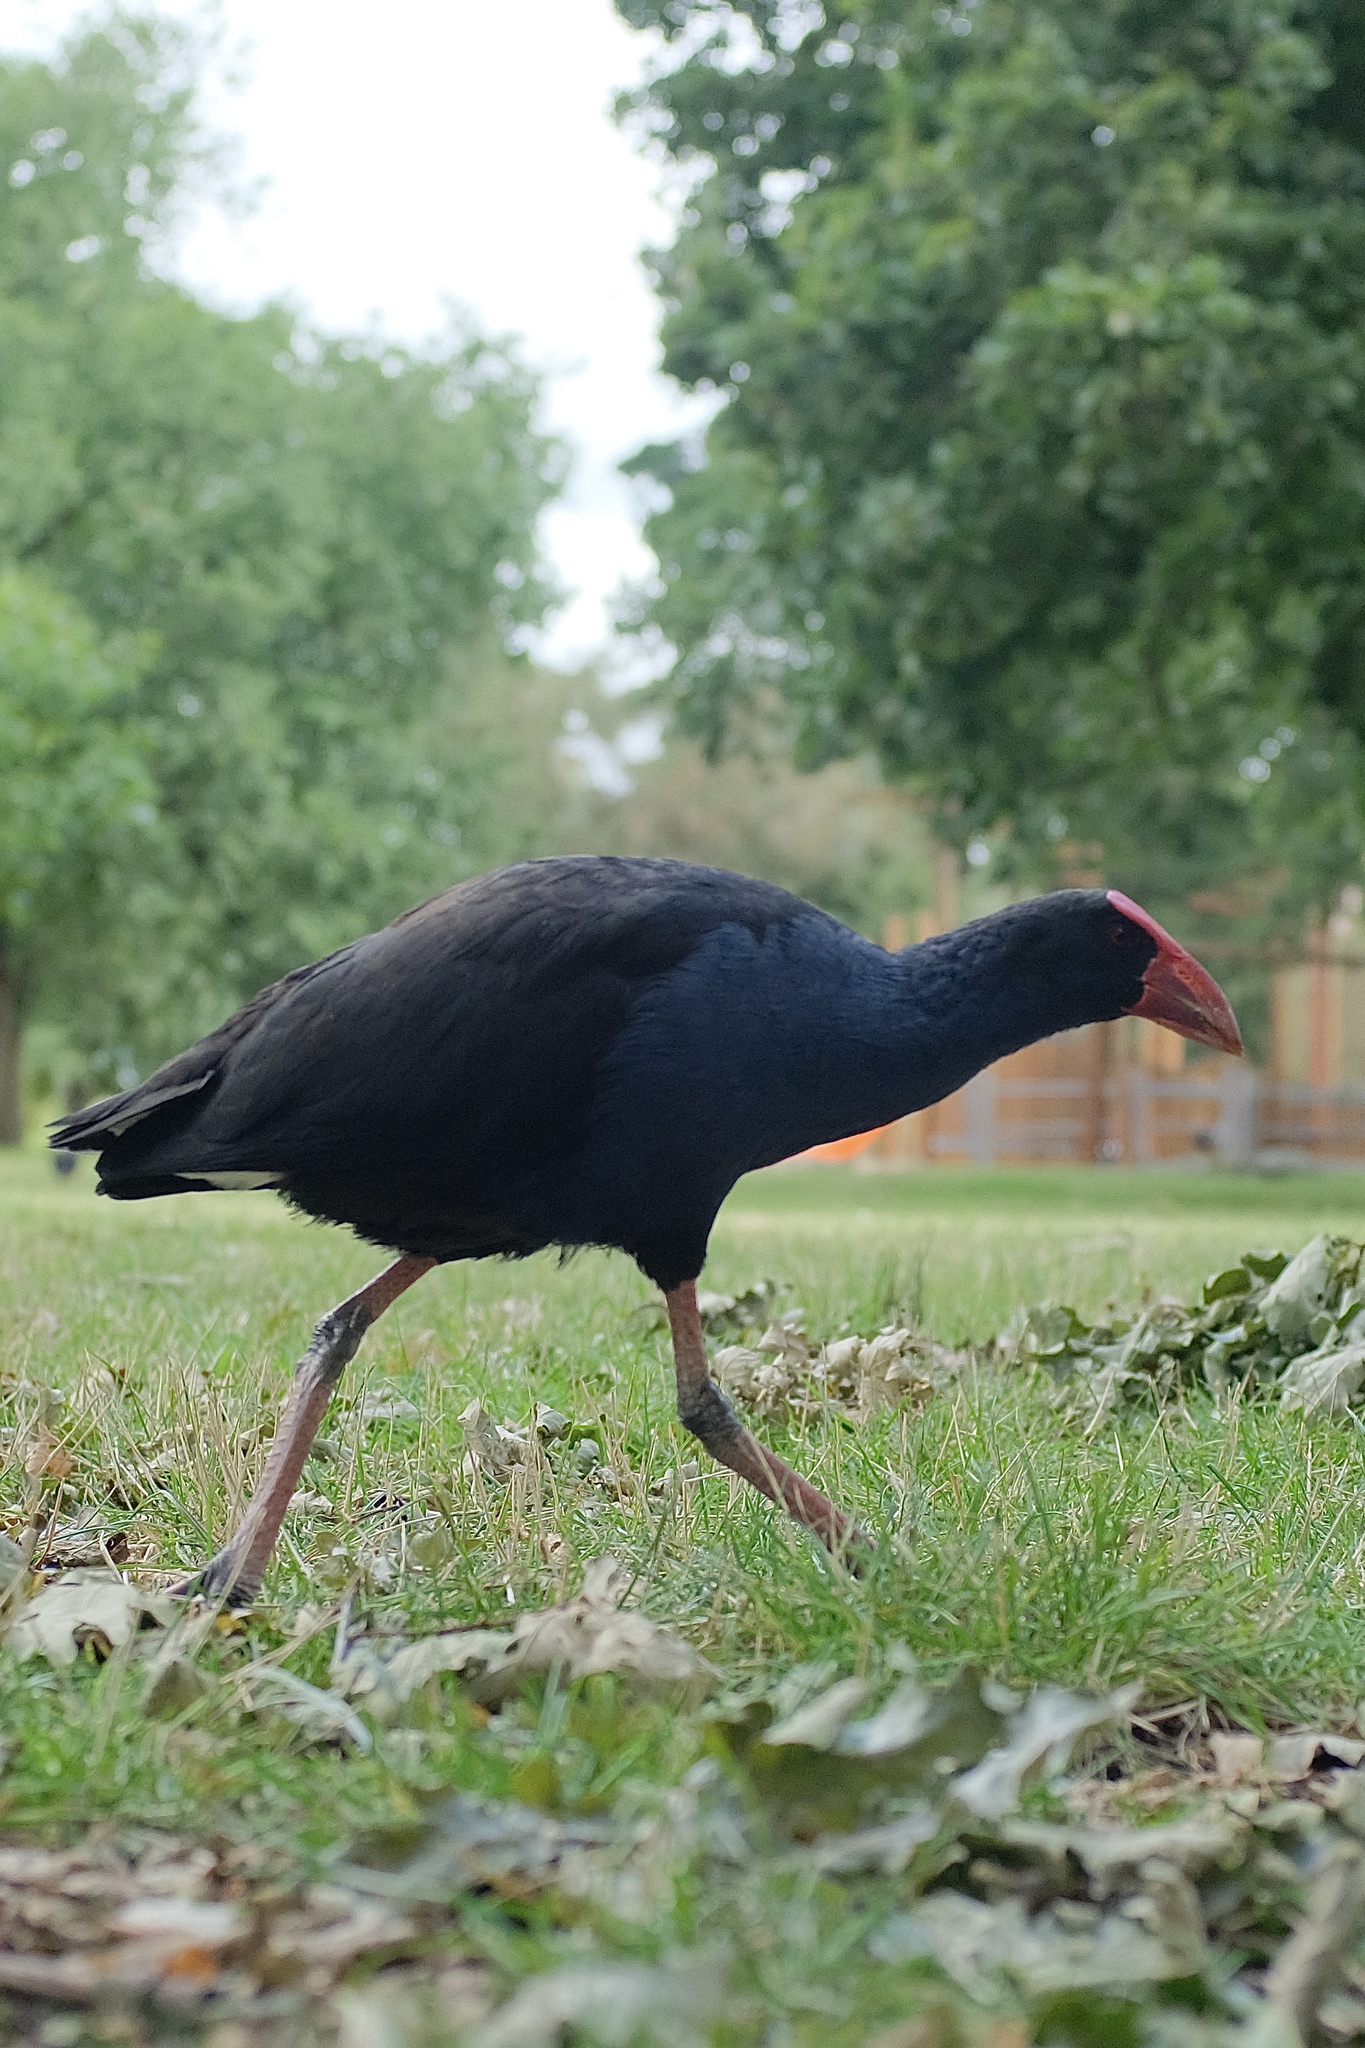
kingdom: Animalia
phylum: Chordata
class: Aves
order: Gruiformes
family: Rallidae
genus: Porphyrio
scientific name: Porphyrio melanotus
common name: Australasian swamphen
